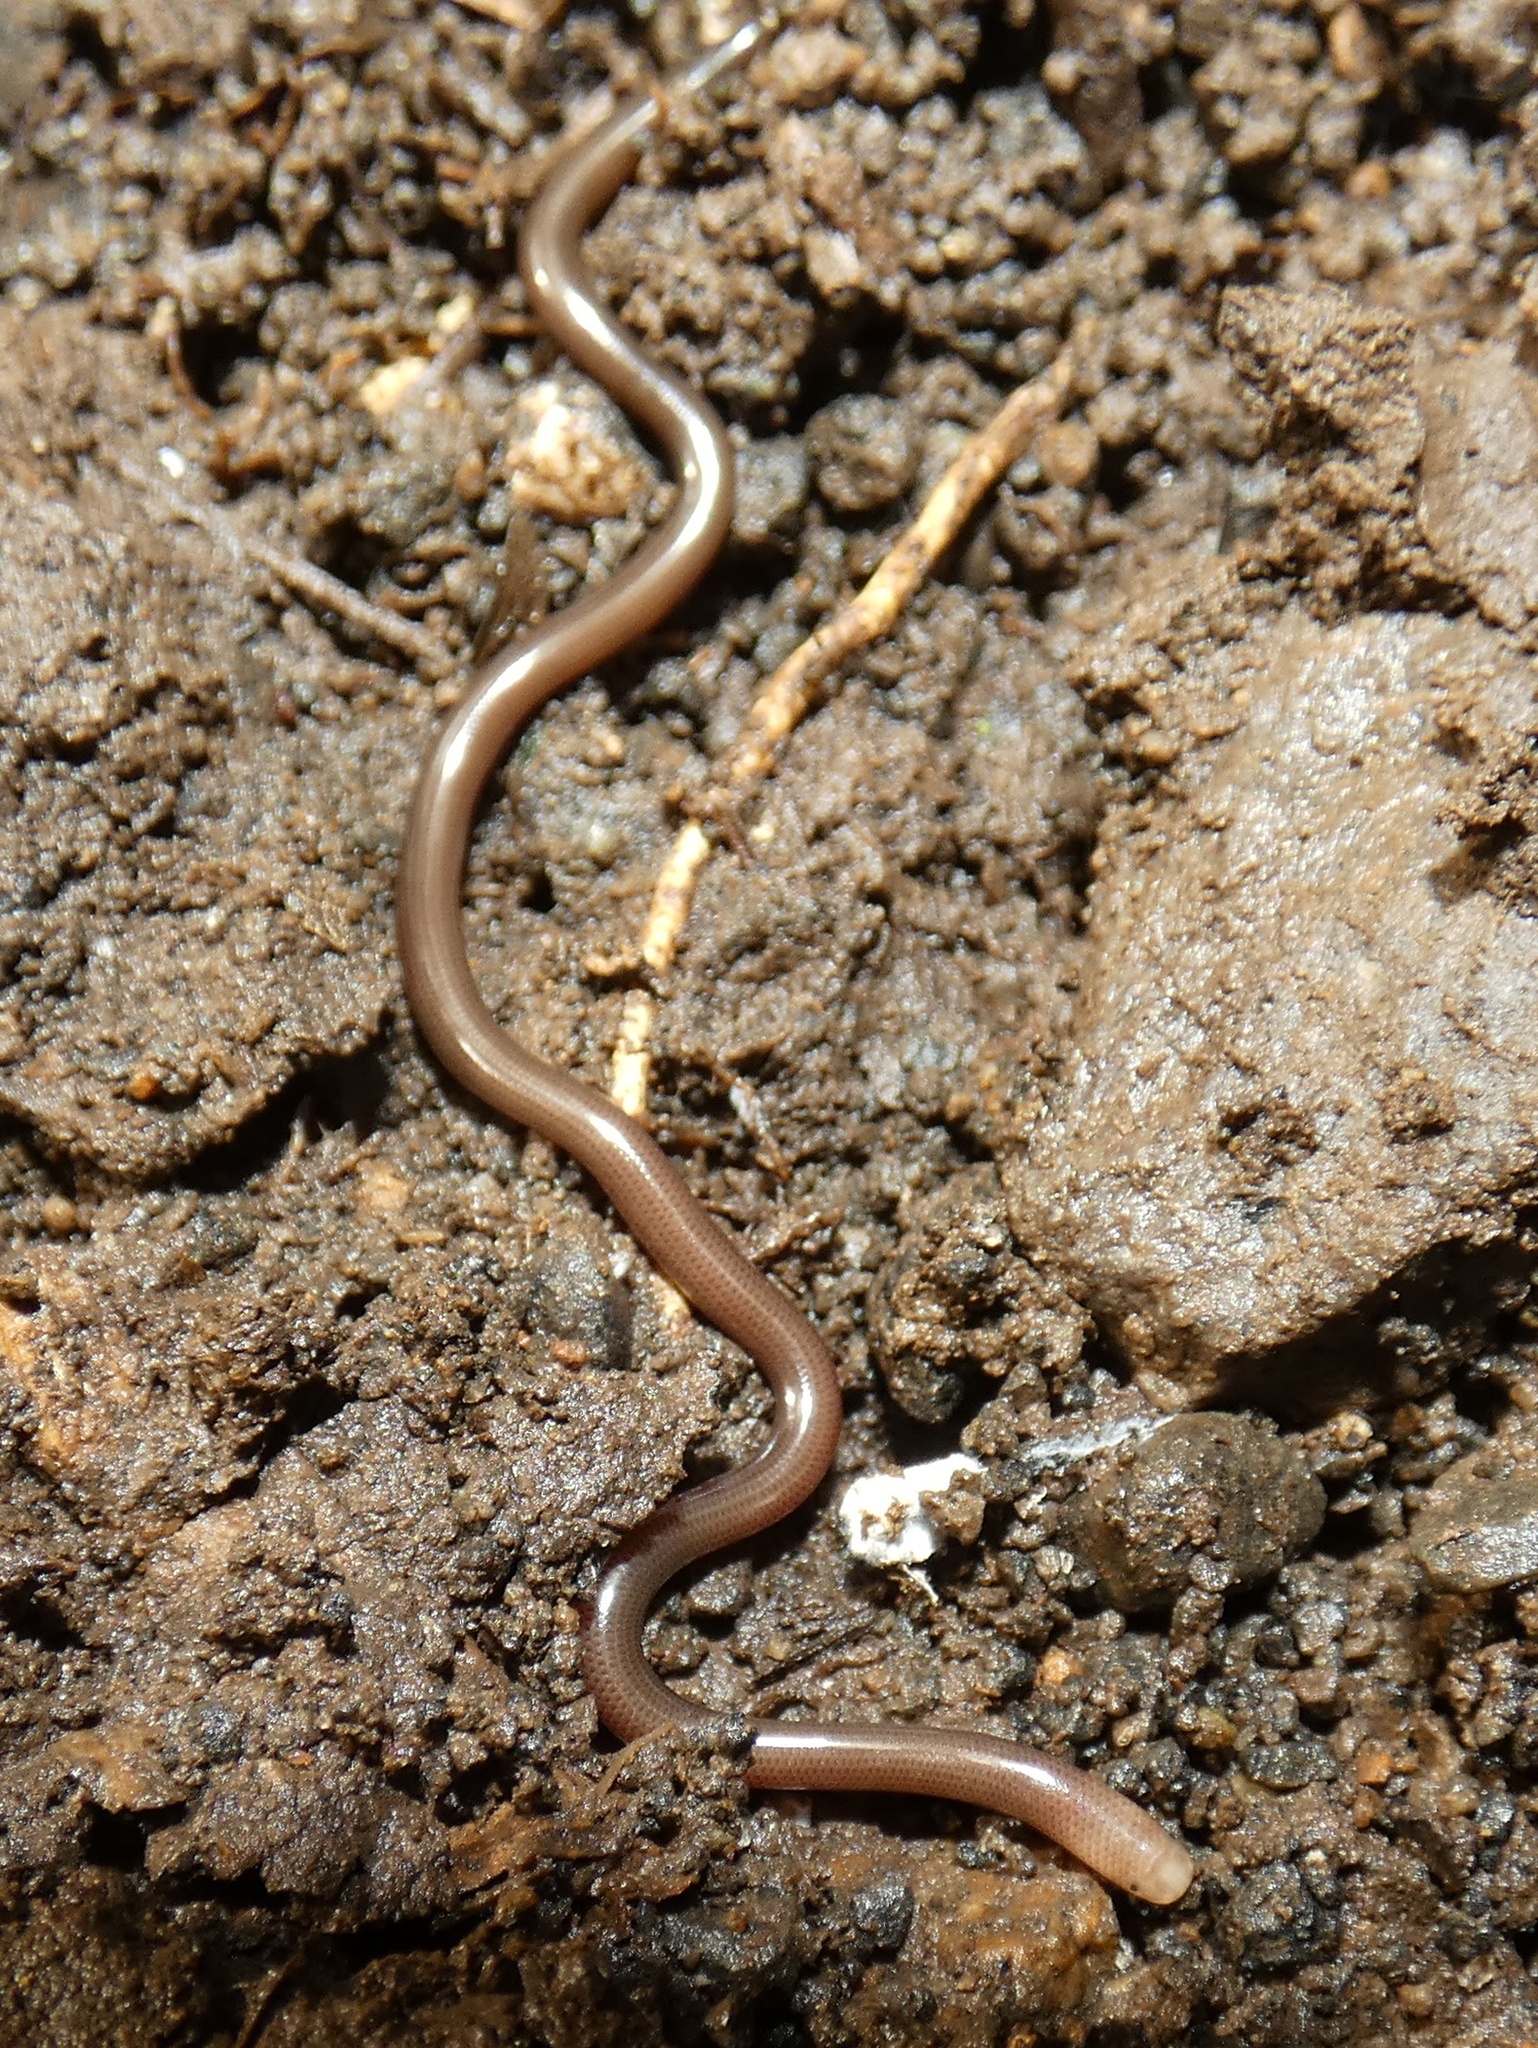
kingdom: Animalia
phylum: Chordata
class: Squamata
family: Anomalepididae
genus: Liotyphlops
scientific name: Liotyphlops albirostris
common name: Whitenose blind snake
